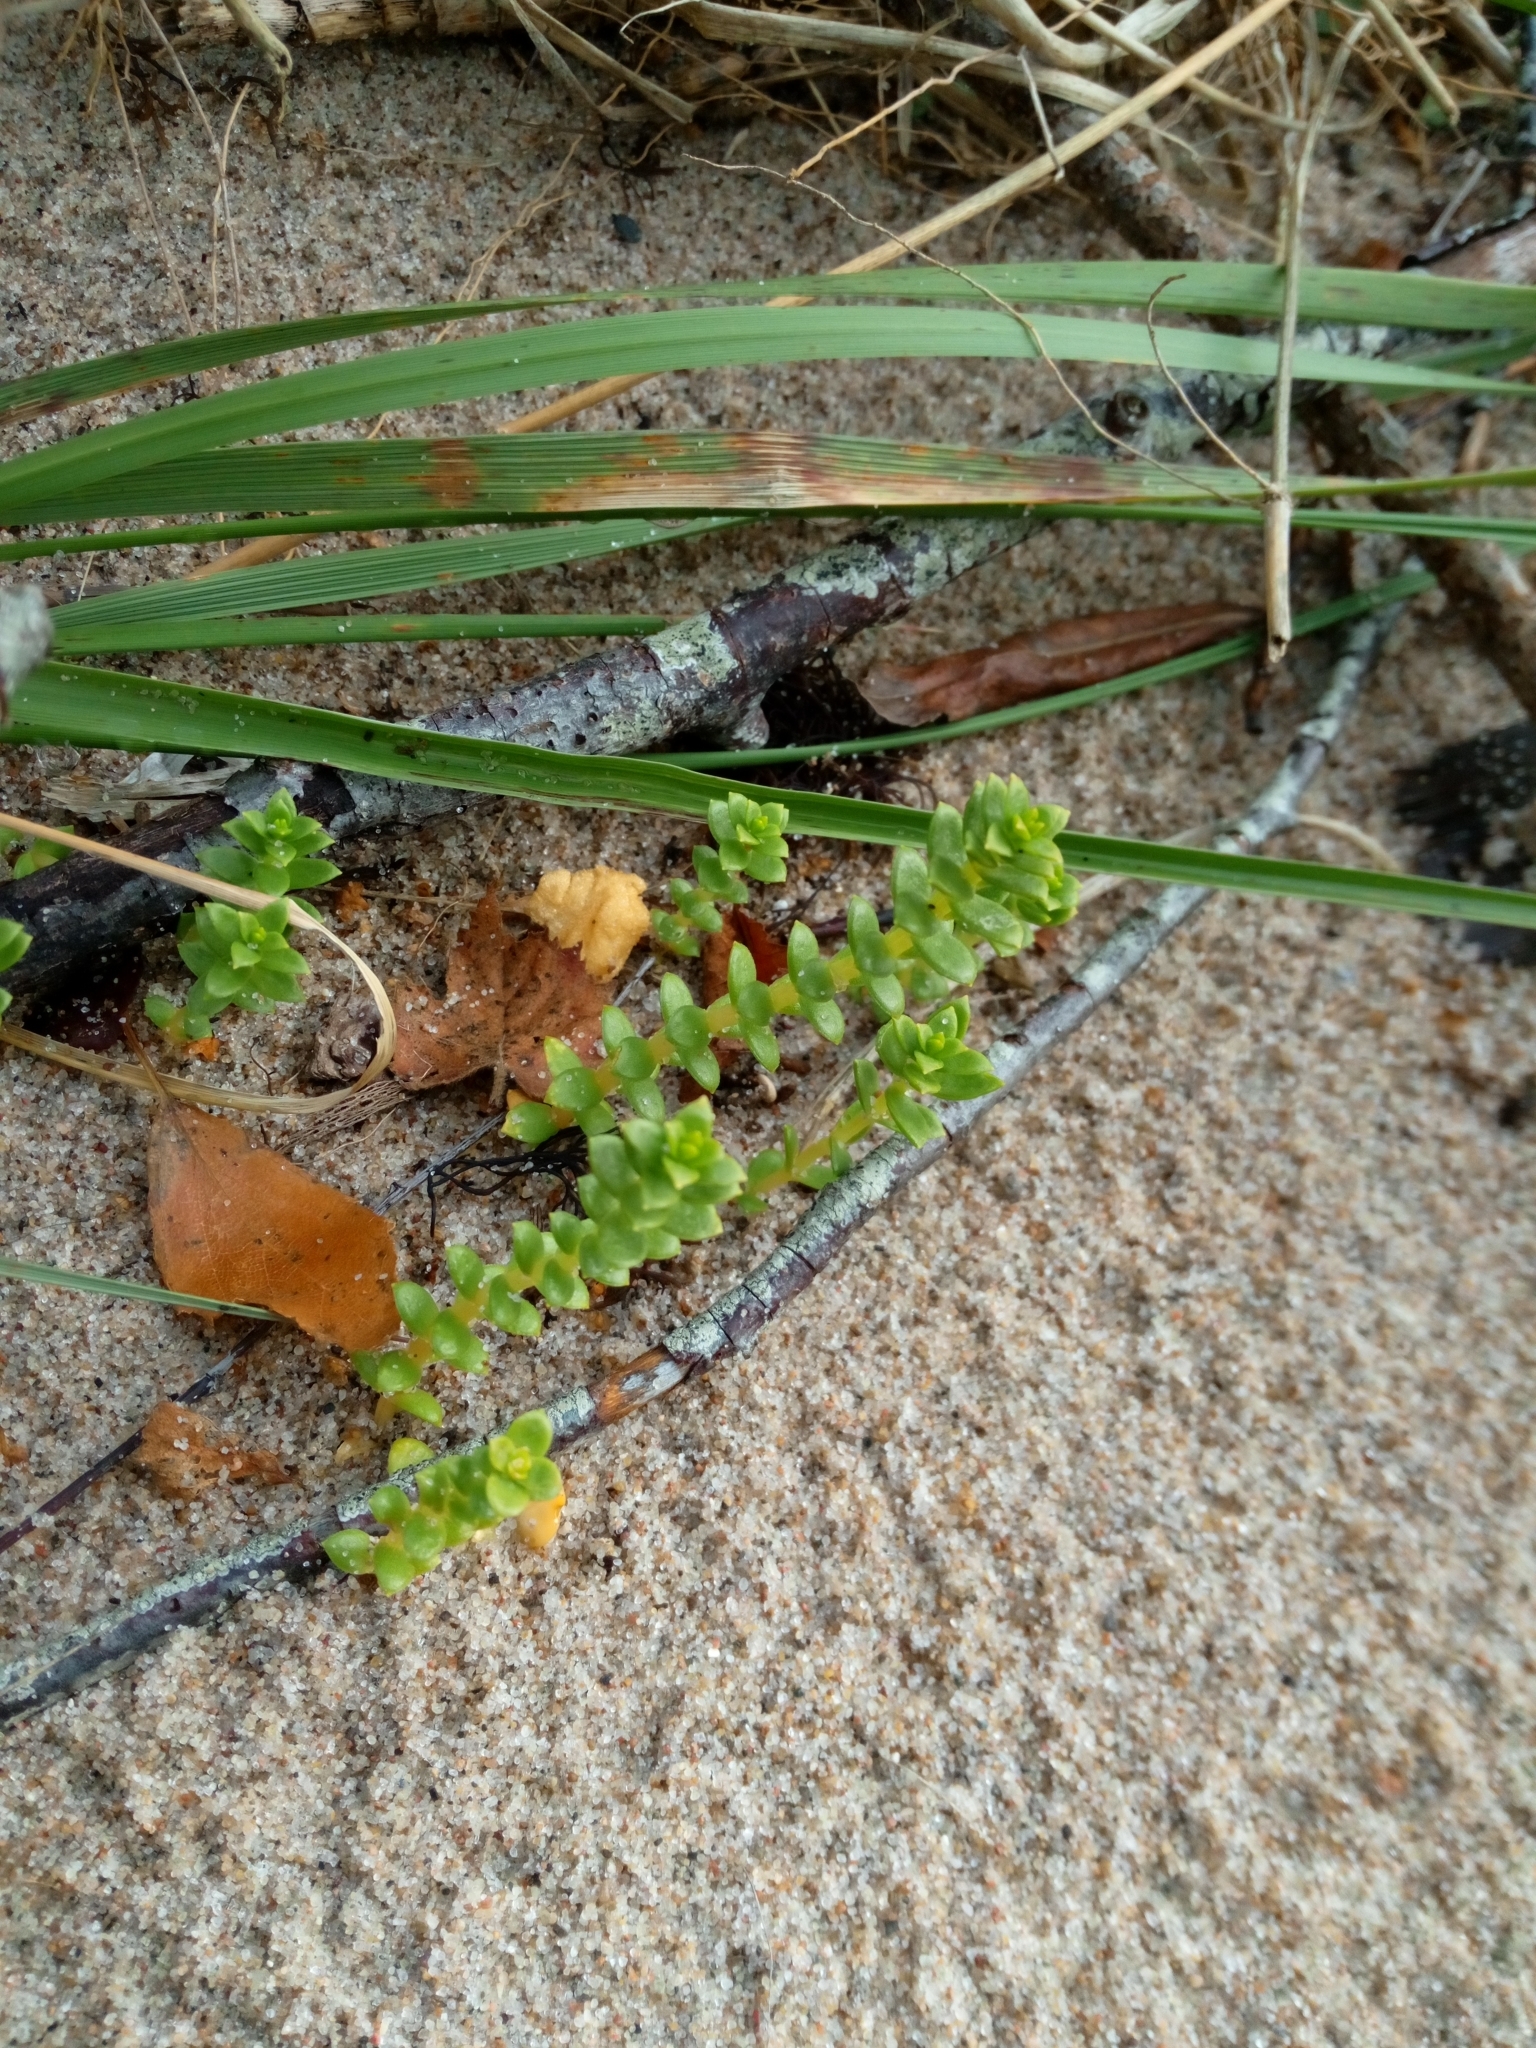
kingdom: Plantae
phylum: Tracheophyta
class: Magnoliopsida
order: Caryophyllales
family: Caryophyllaceae
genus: Honckenya
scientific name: Honckenya peploides
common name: Sea sandwort
